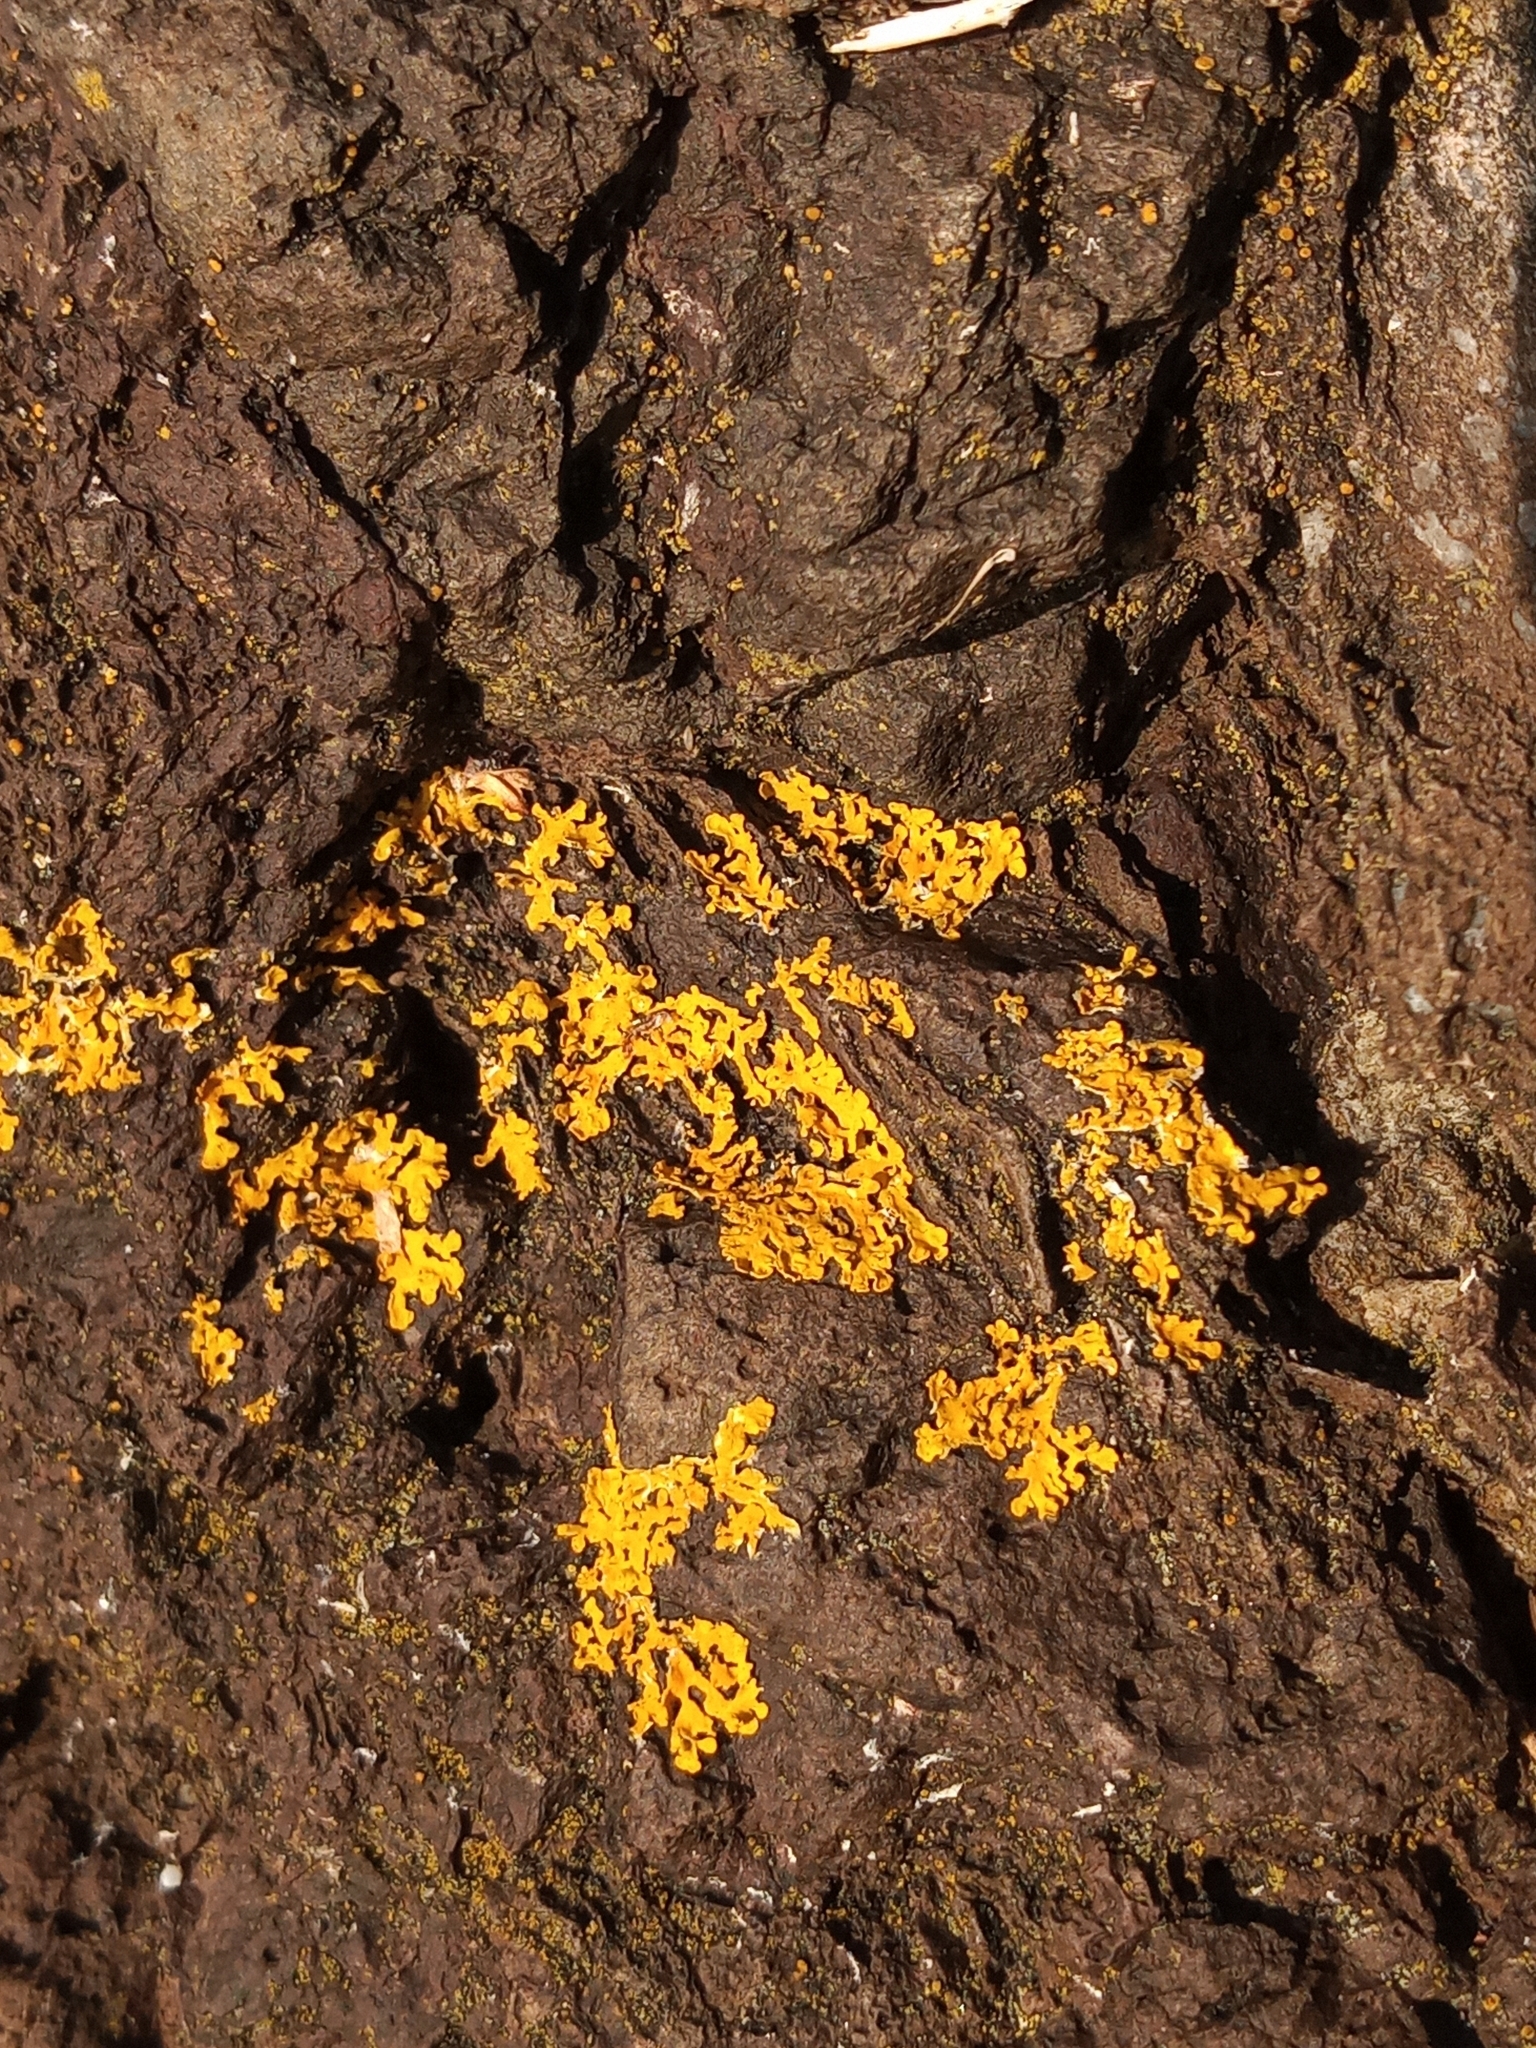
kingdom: Fungi
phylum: Ascomycota
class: Lecanoromycetes
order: Teloschistales
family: Teloschistaceae
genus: Xanthoria
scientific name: Xanthoria aureola
